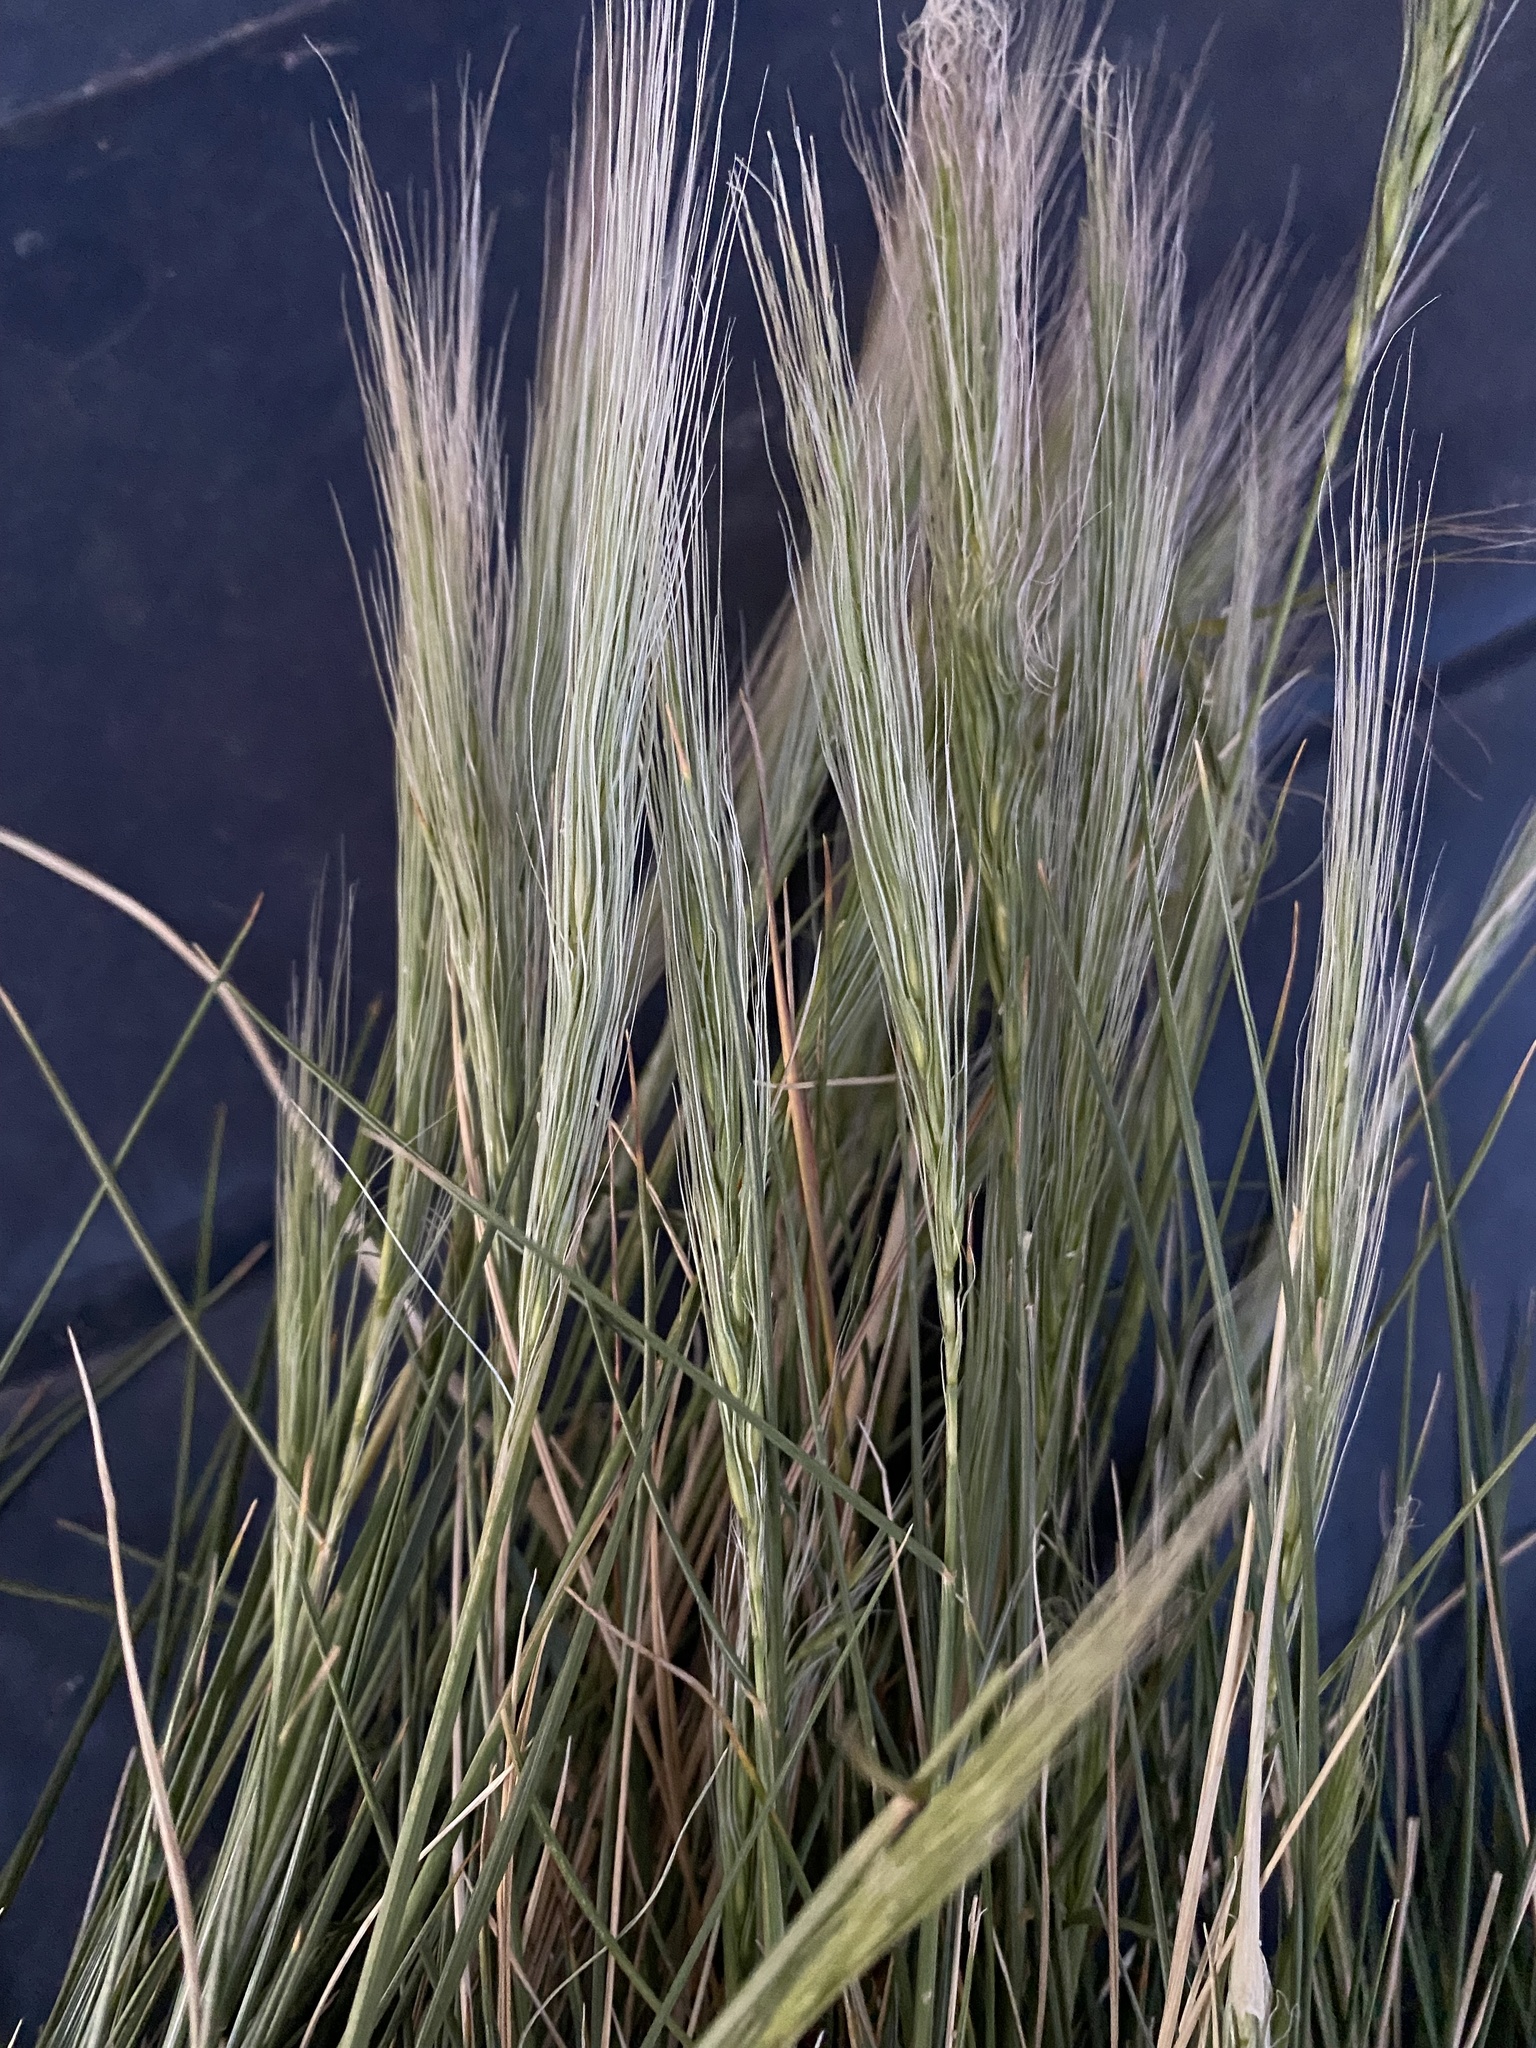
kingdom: Plantae
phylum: Tracheophyta
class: Liliopsida
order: Poales
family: Poaceae
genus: Elymus
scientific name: Elymus longifolius
